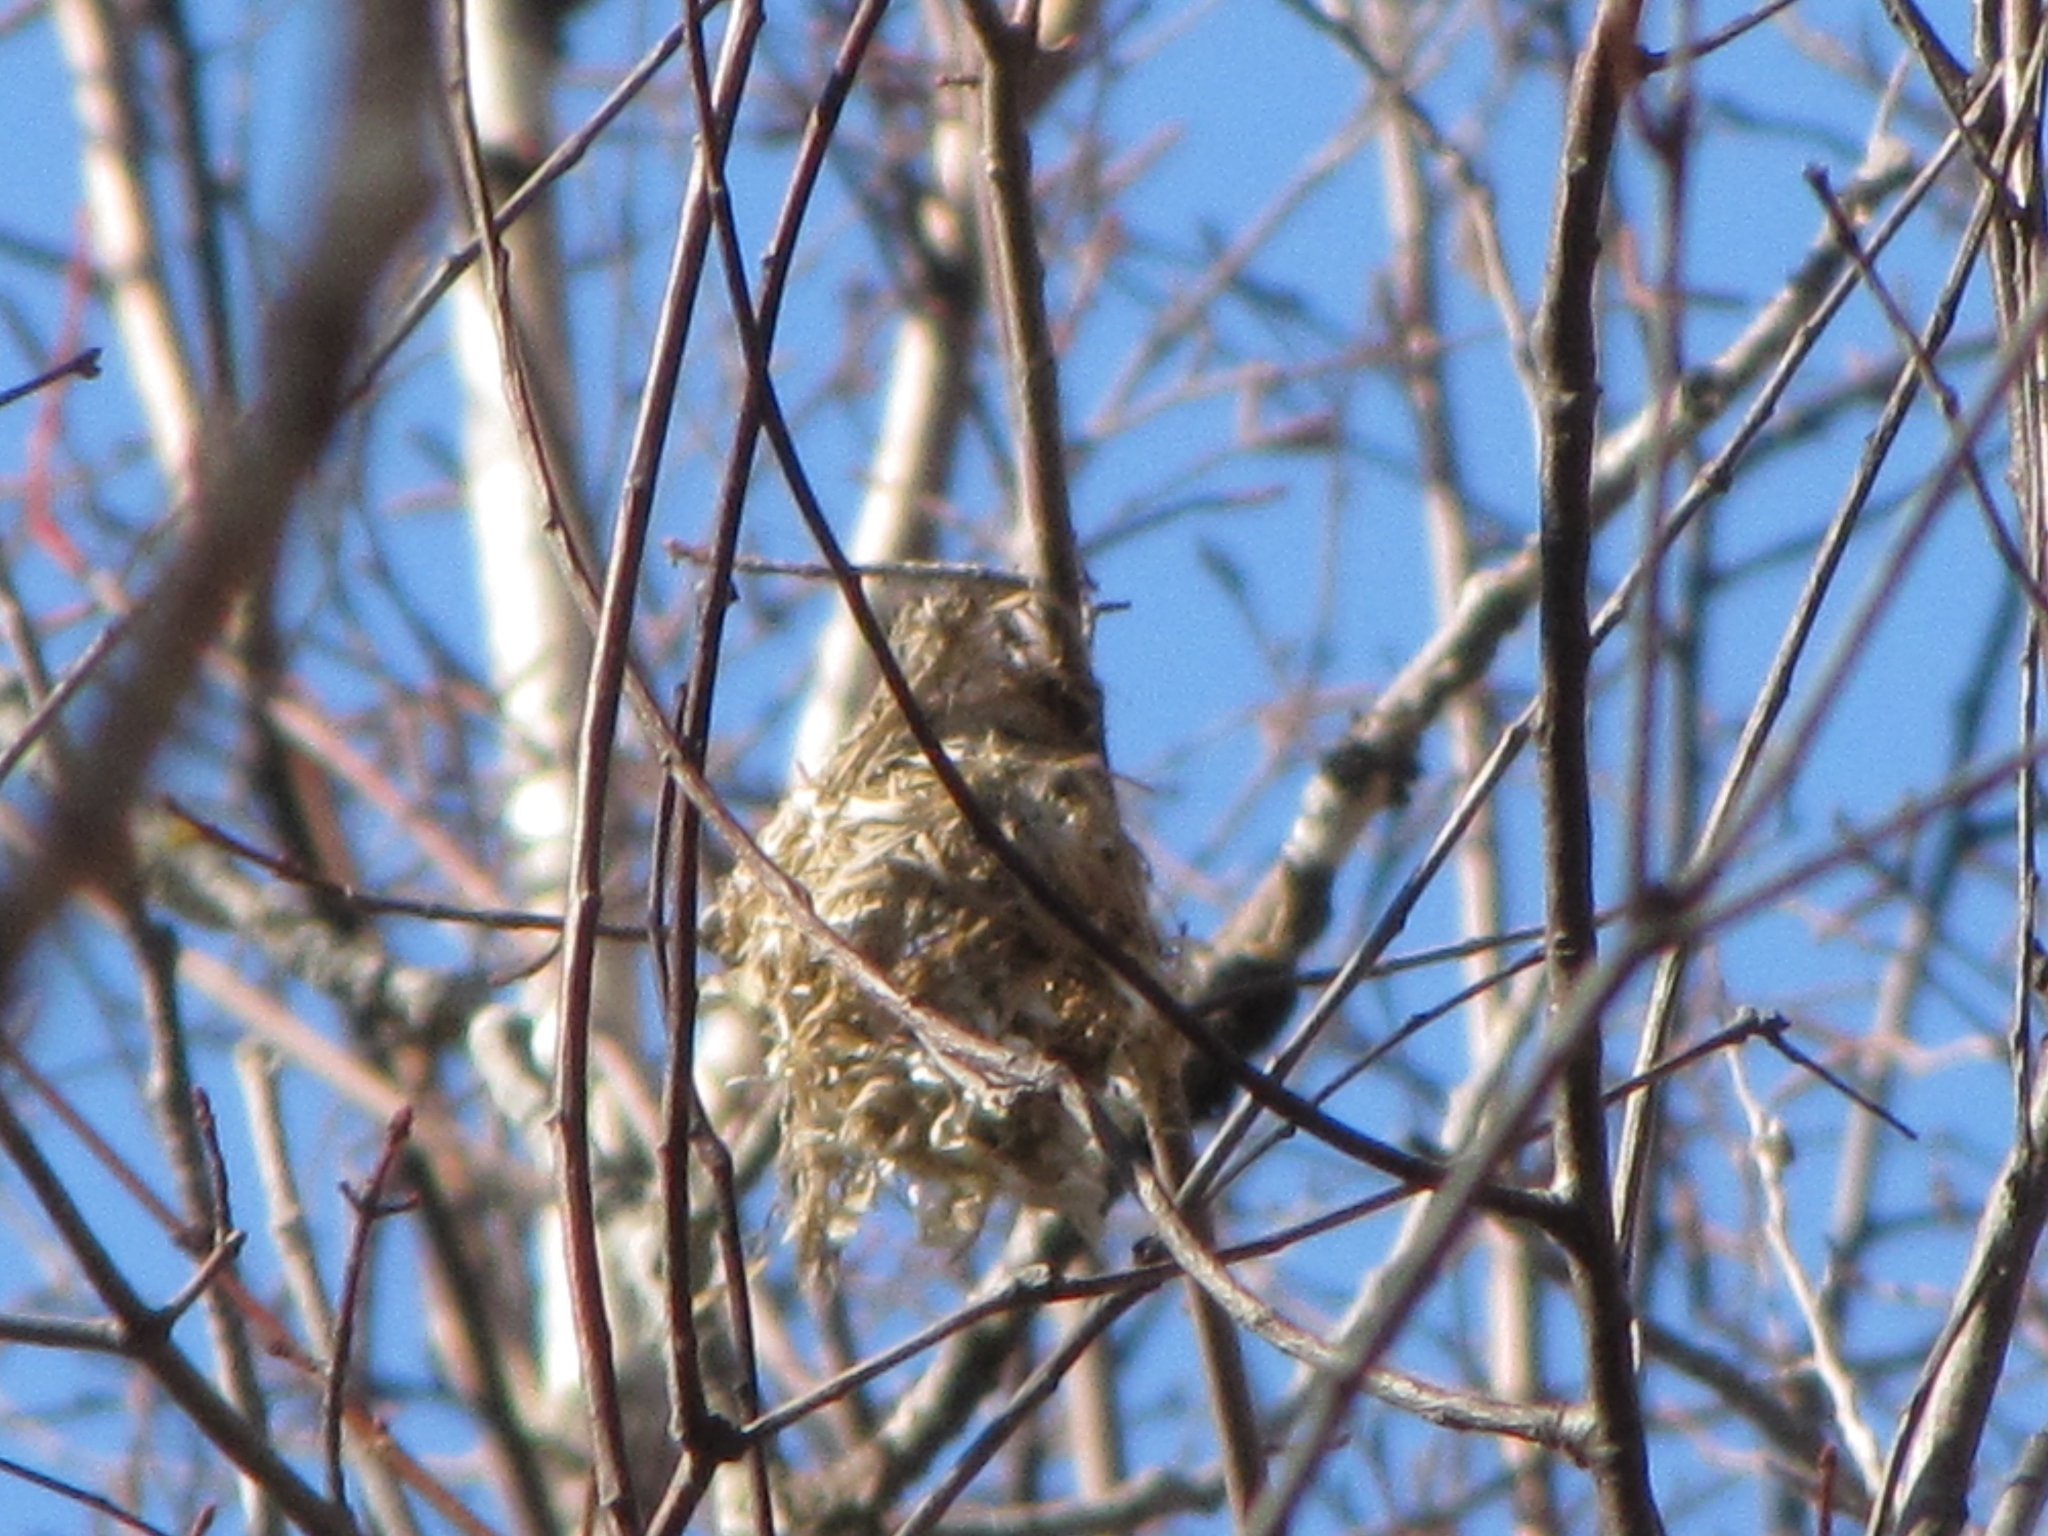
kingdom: Animalia
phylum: Chordata
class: Aves
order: Passeriformes
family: Icteridae
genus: Icterus
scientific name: Icterus galbula
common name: Baltimore oriole
